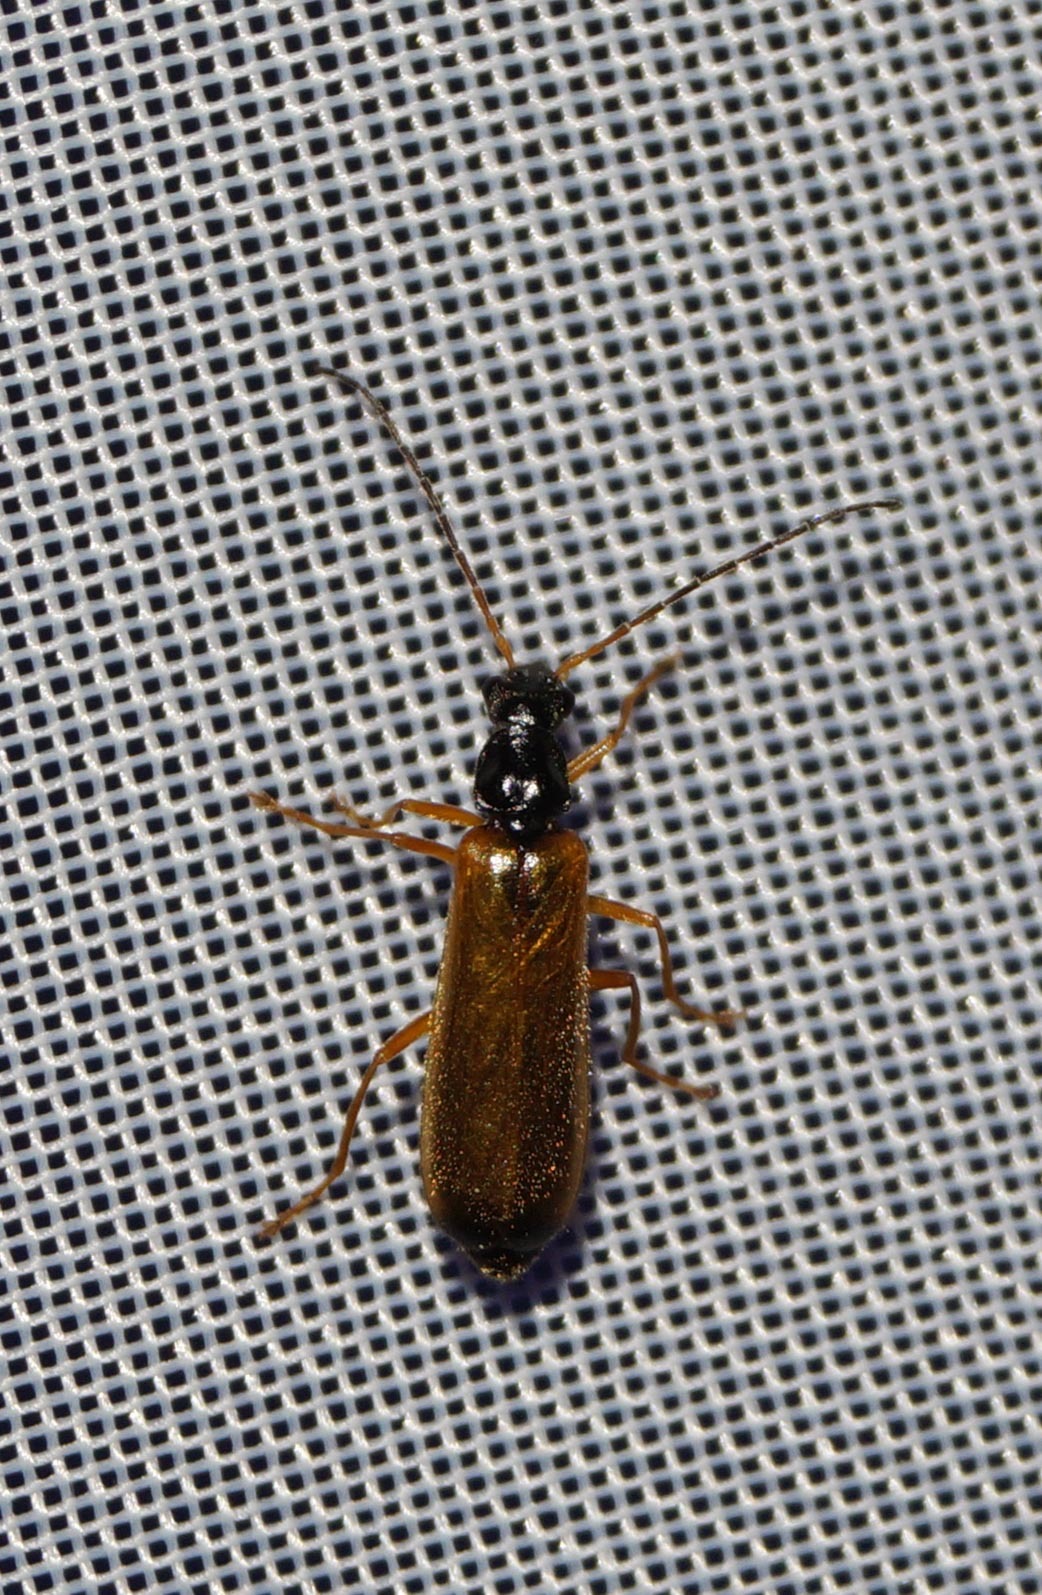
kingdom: Animalia
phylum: Arthropoda
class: Insecta
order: Coleoptera
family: Cantharidae
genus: Rhagonycha
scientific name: Rhagonycha lignosa
